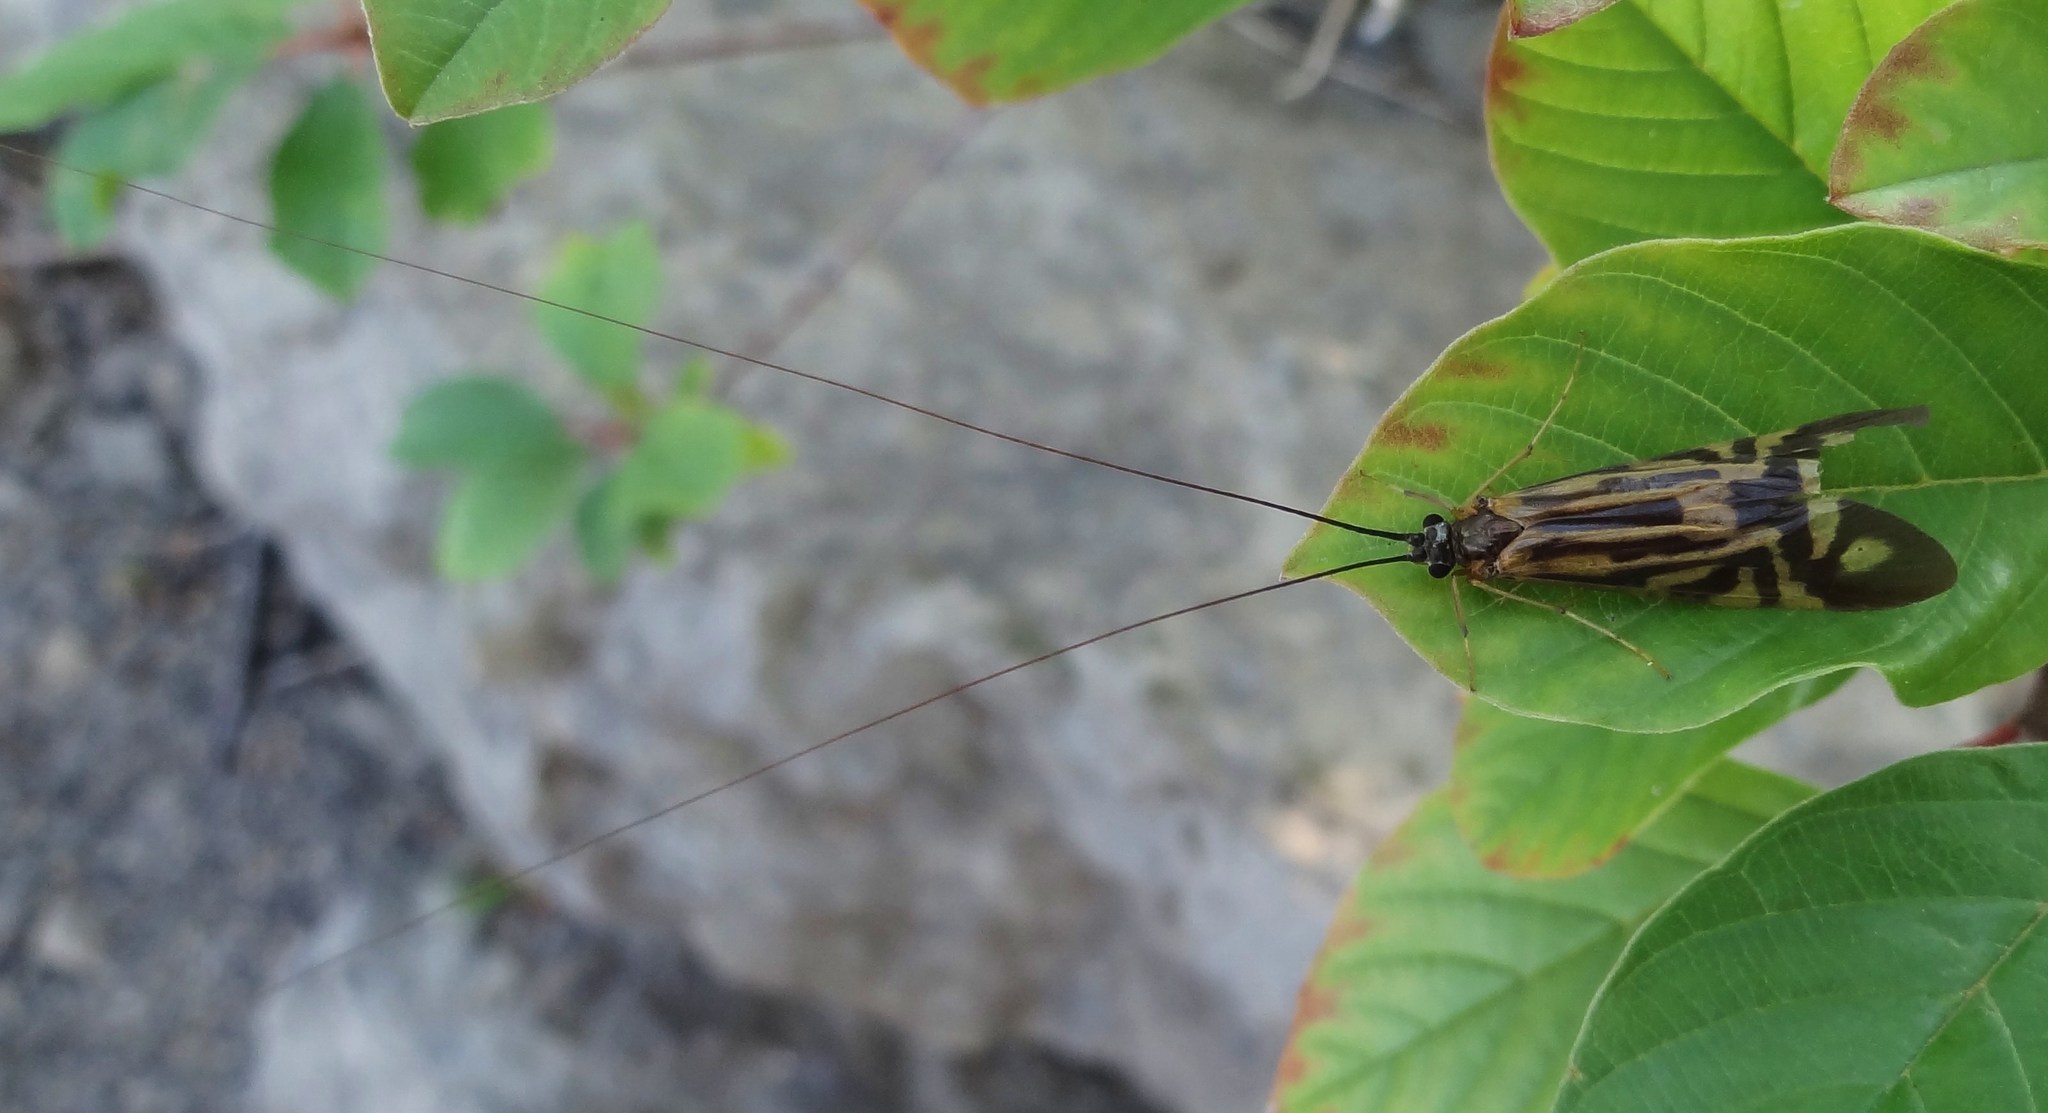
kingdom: Animalia
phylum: Arthropoda
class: Insecta
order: Trichoptera
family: Hydropsychidae
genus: Macrostemum
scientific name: Macrostemum zebratum
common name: Zebra caddisfly
